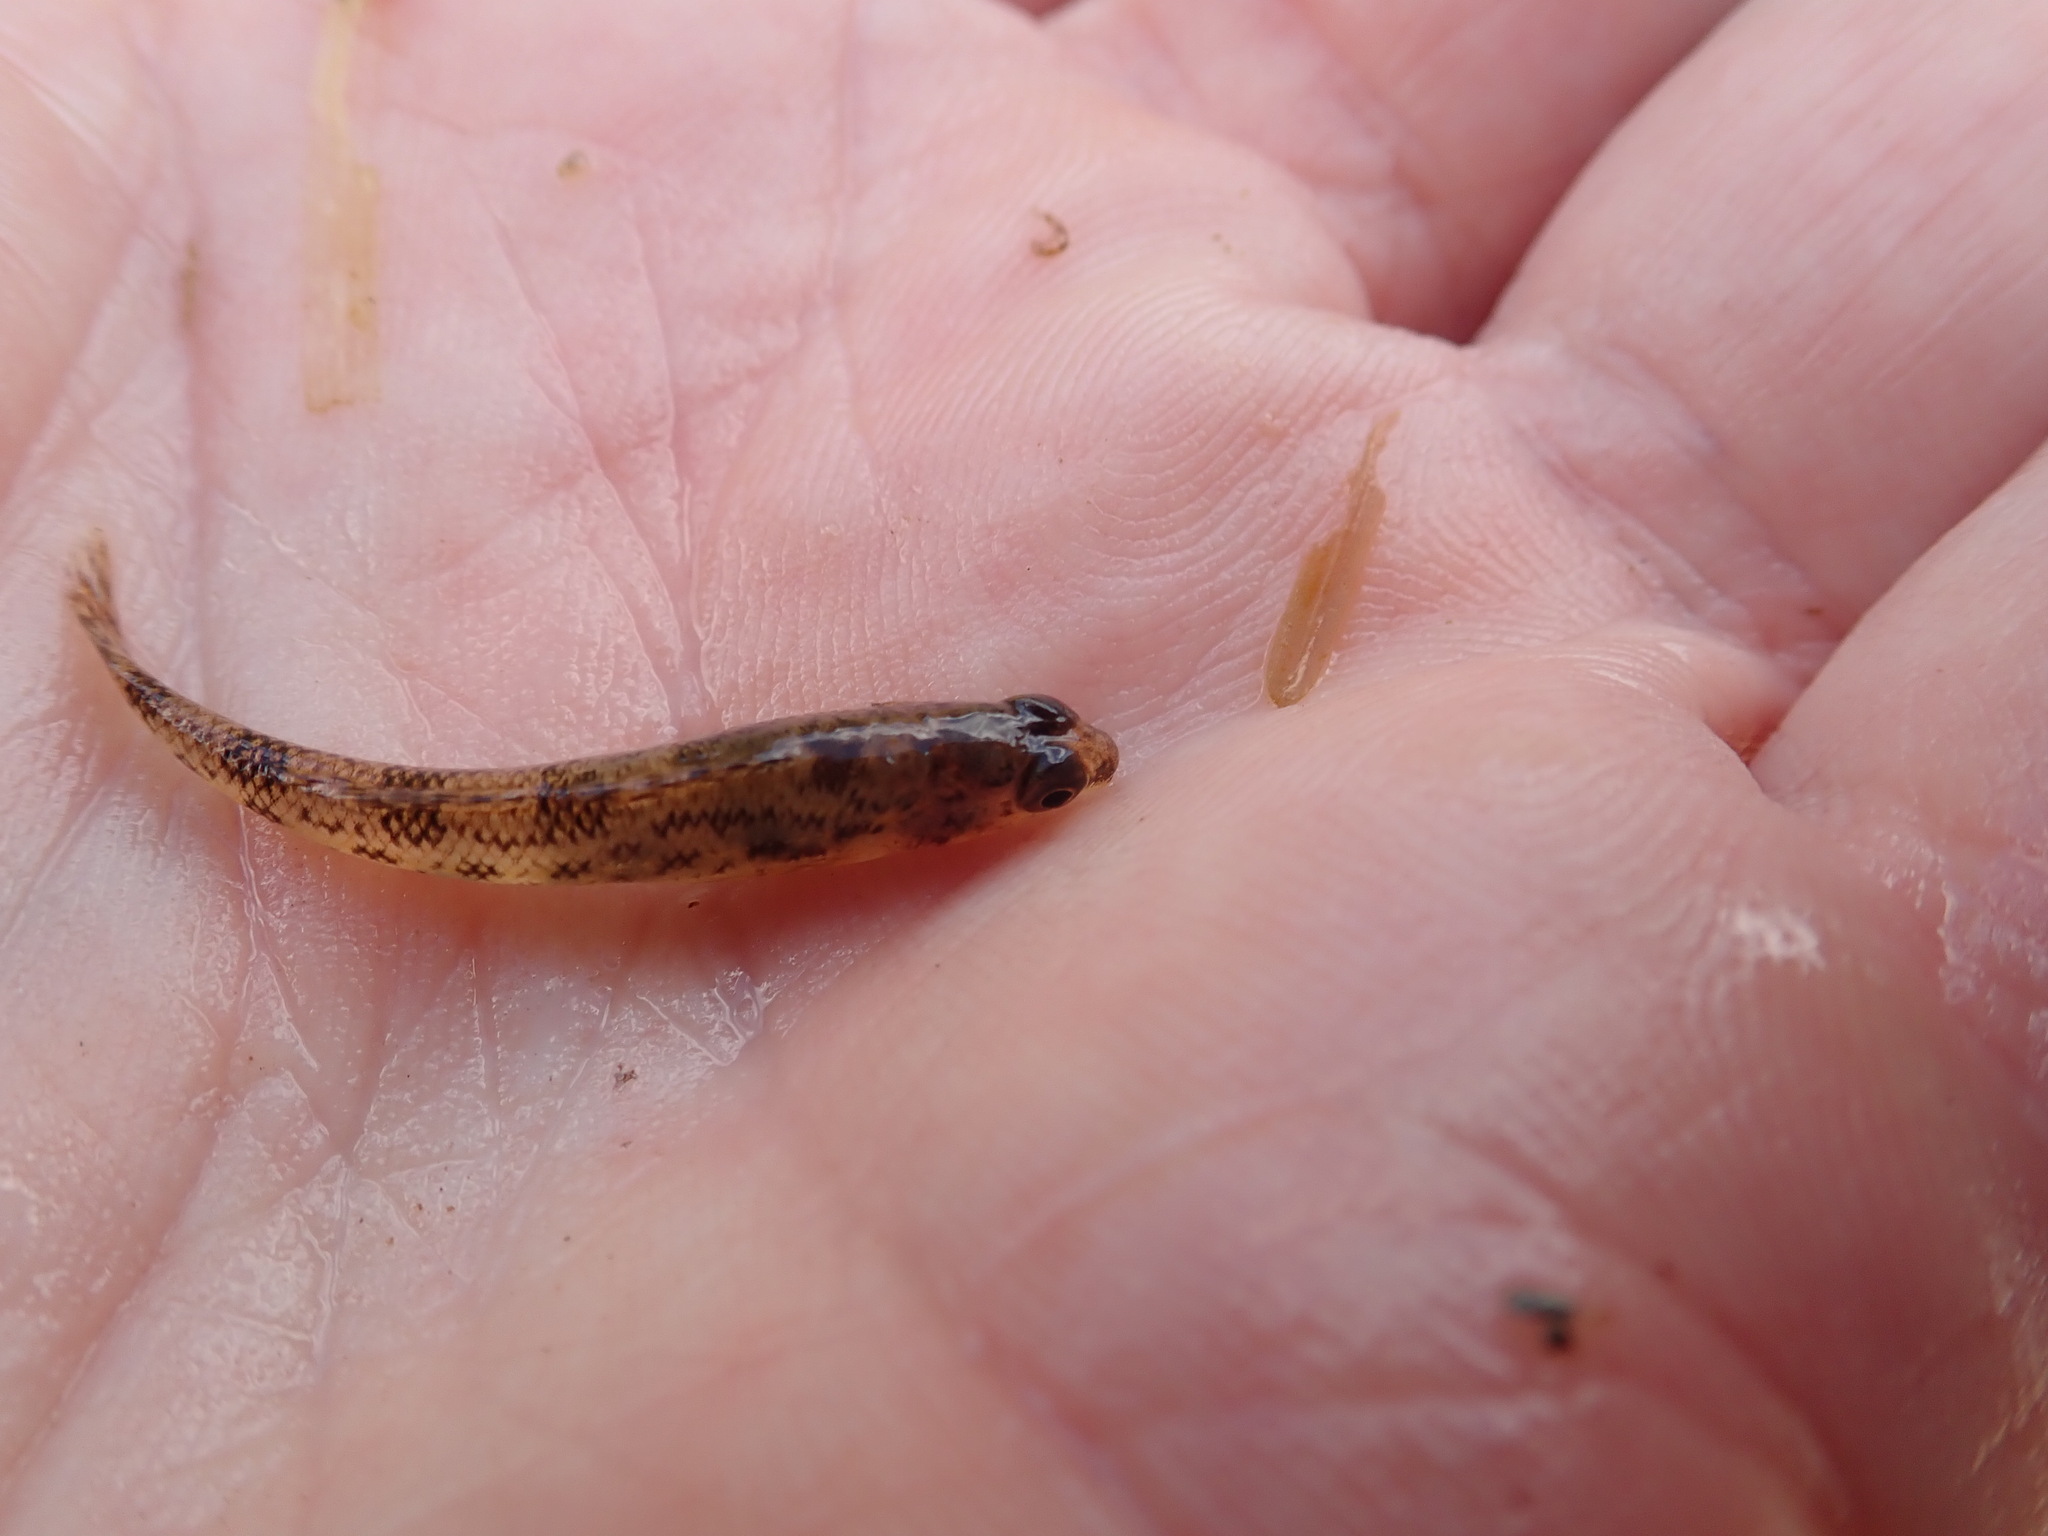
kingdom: Animalia
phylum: Chordata
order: Perciformes
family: Percidae
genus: Etheostoma
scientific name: Etheostoma nigrum
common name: Johnny darter
